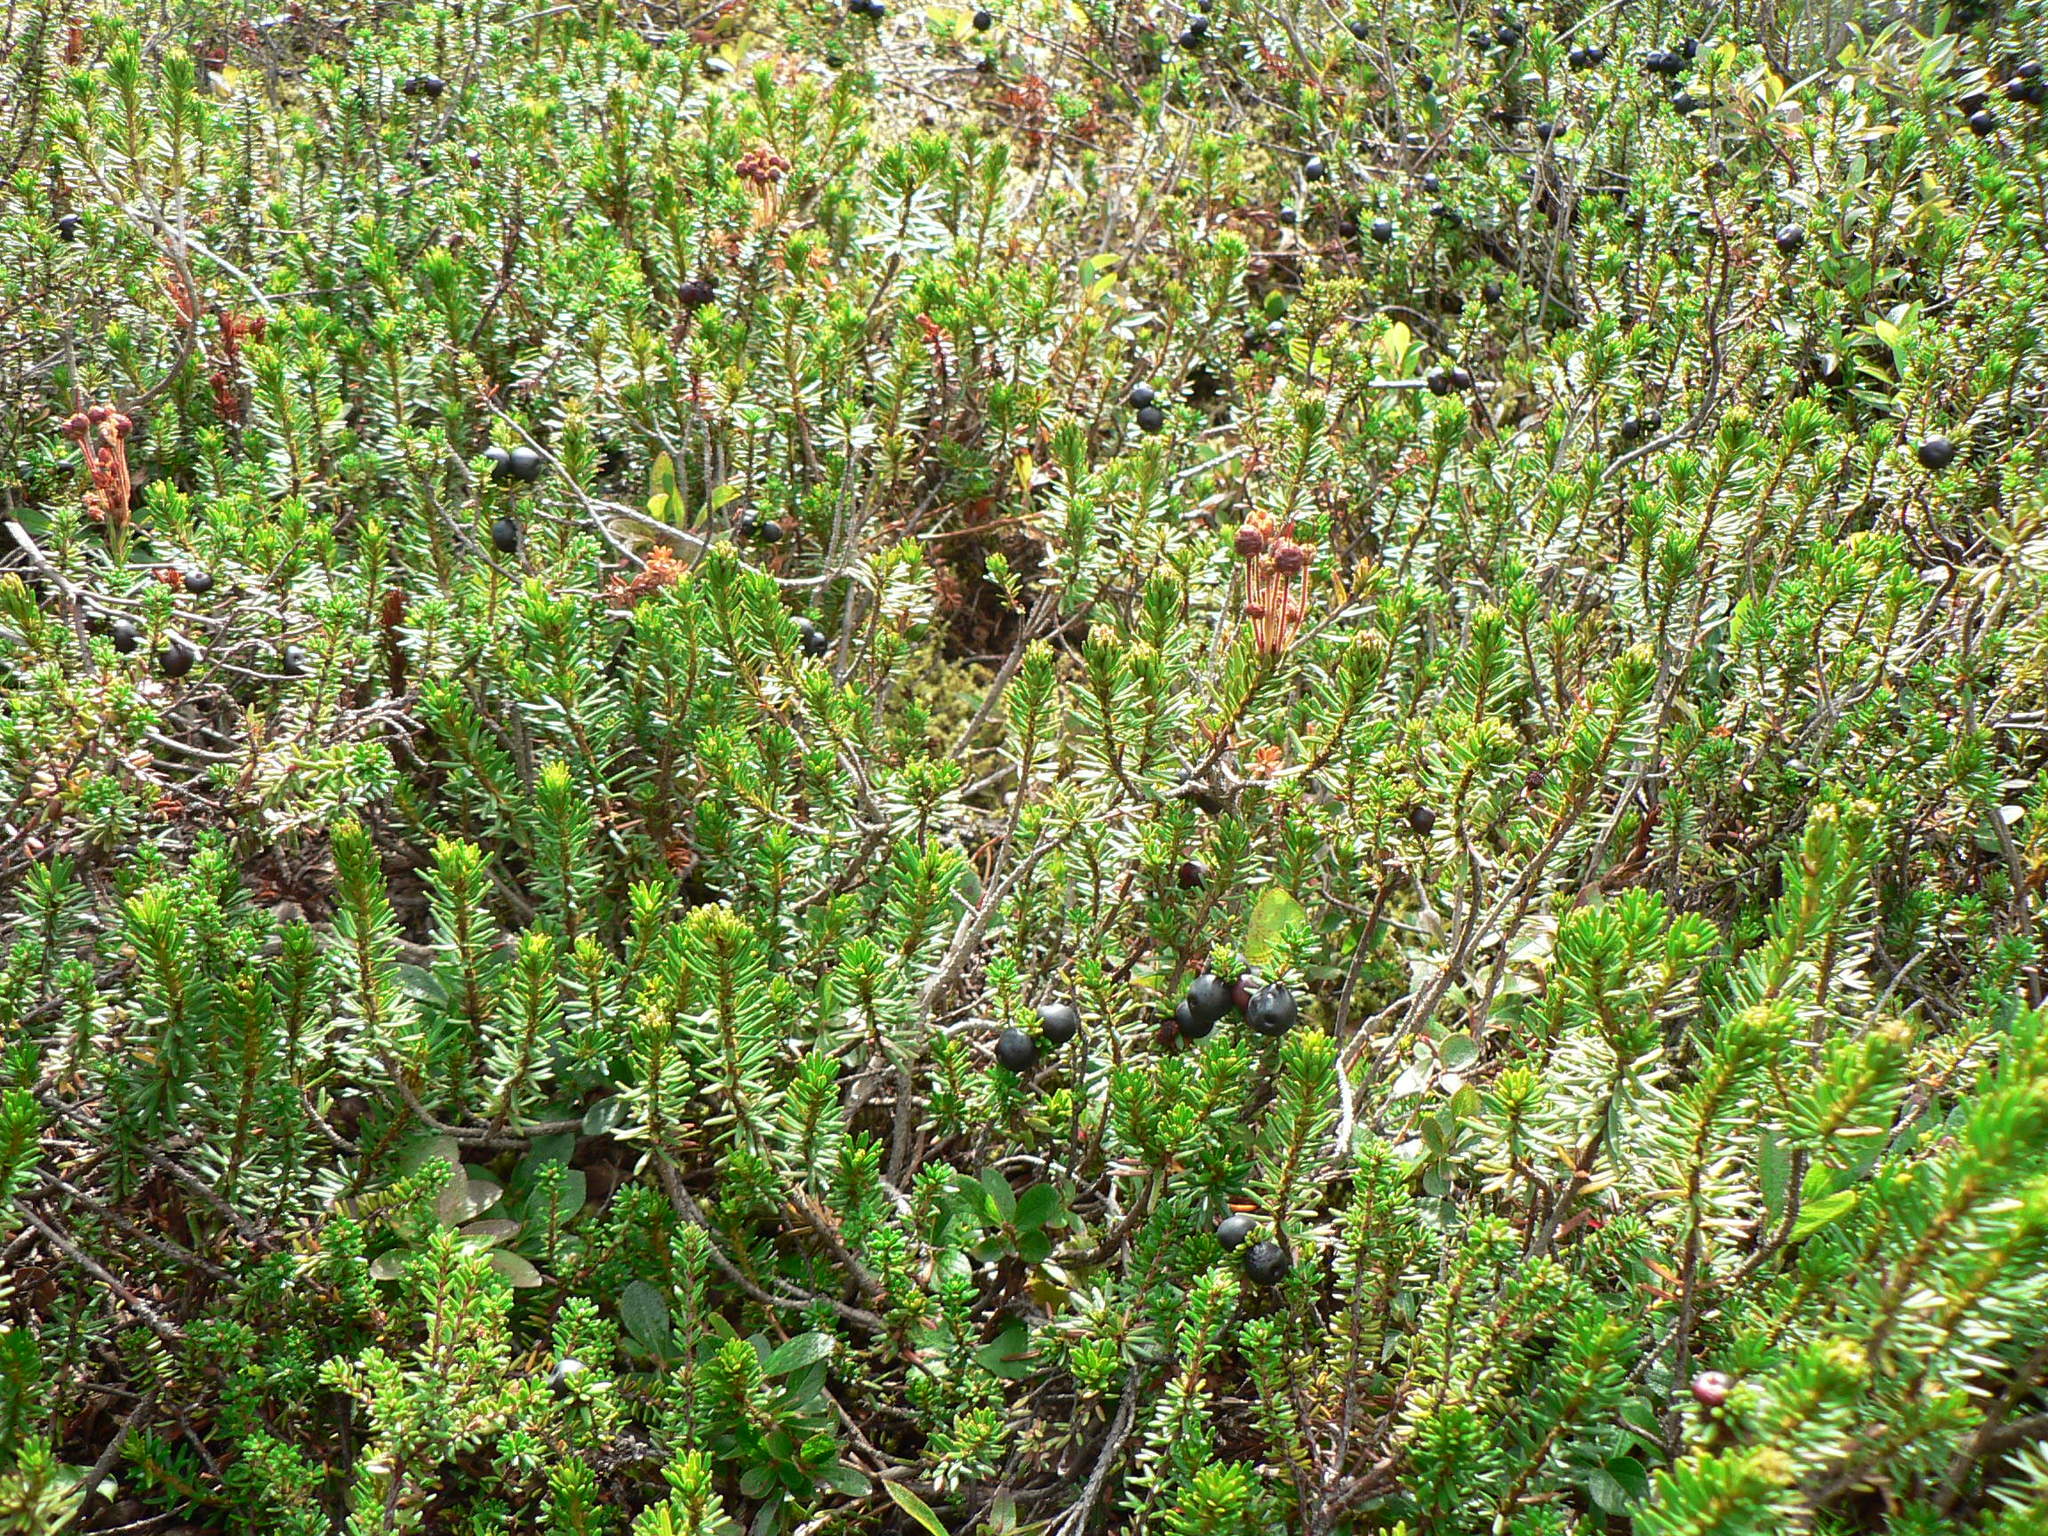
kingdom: Plantae
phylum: Tracheophyta
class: Magnoliopsida
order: Ericales
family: Ericaceae
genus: Empetrum
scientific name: Empetrum nigrum
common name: Black crowberry
